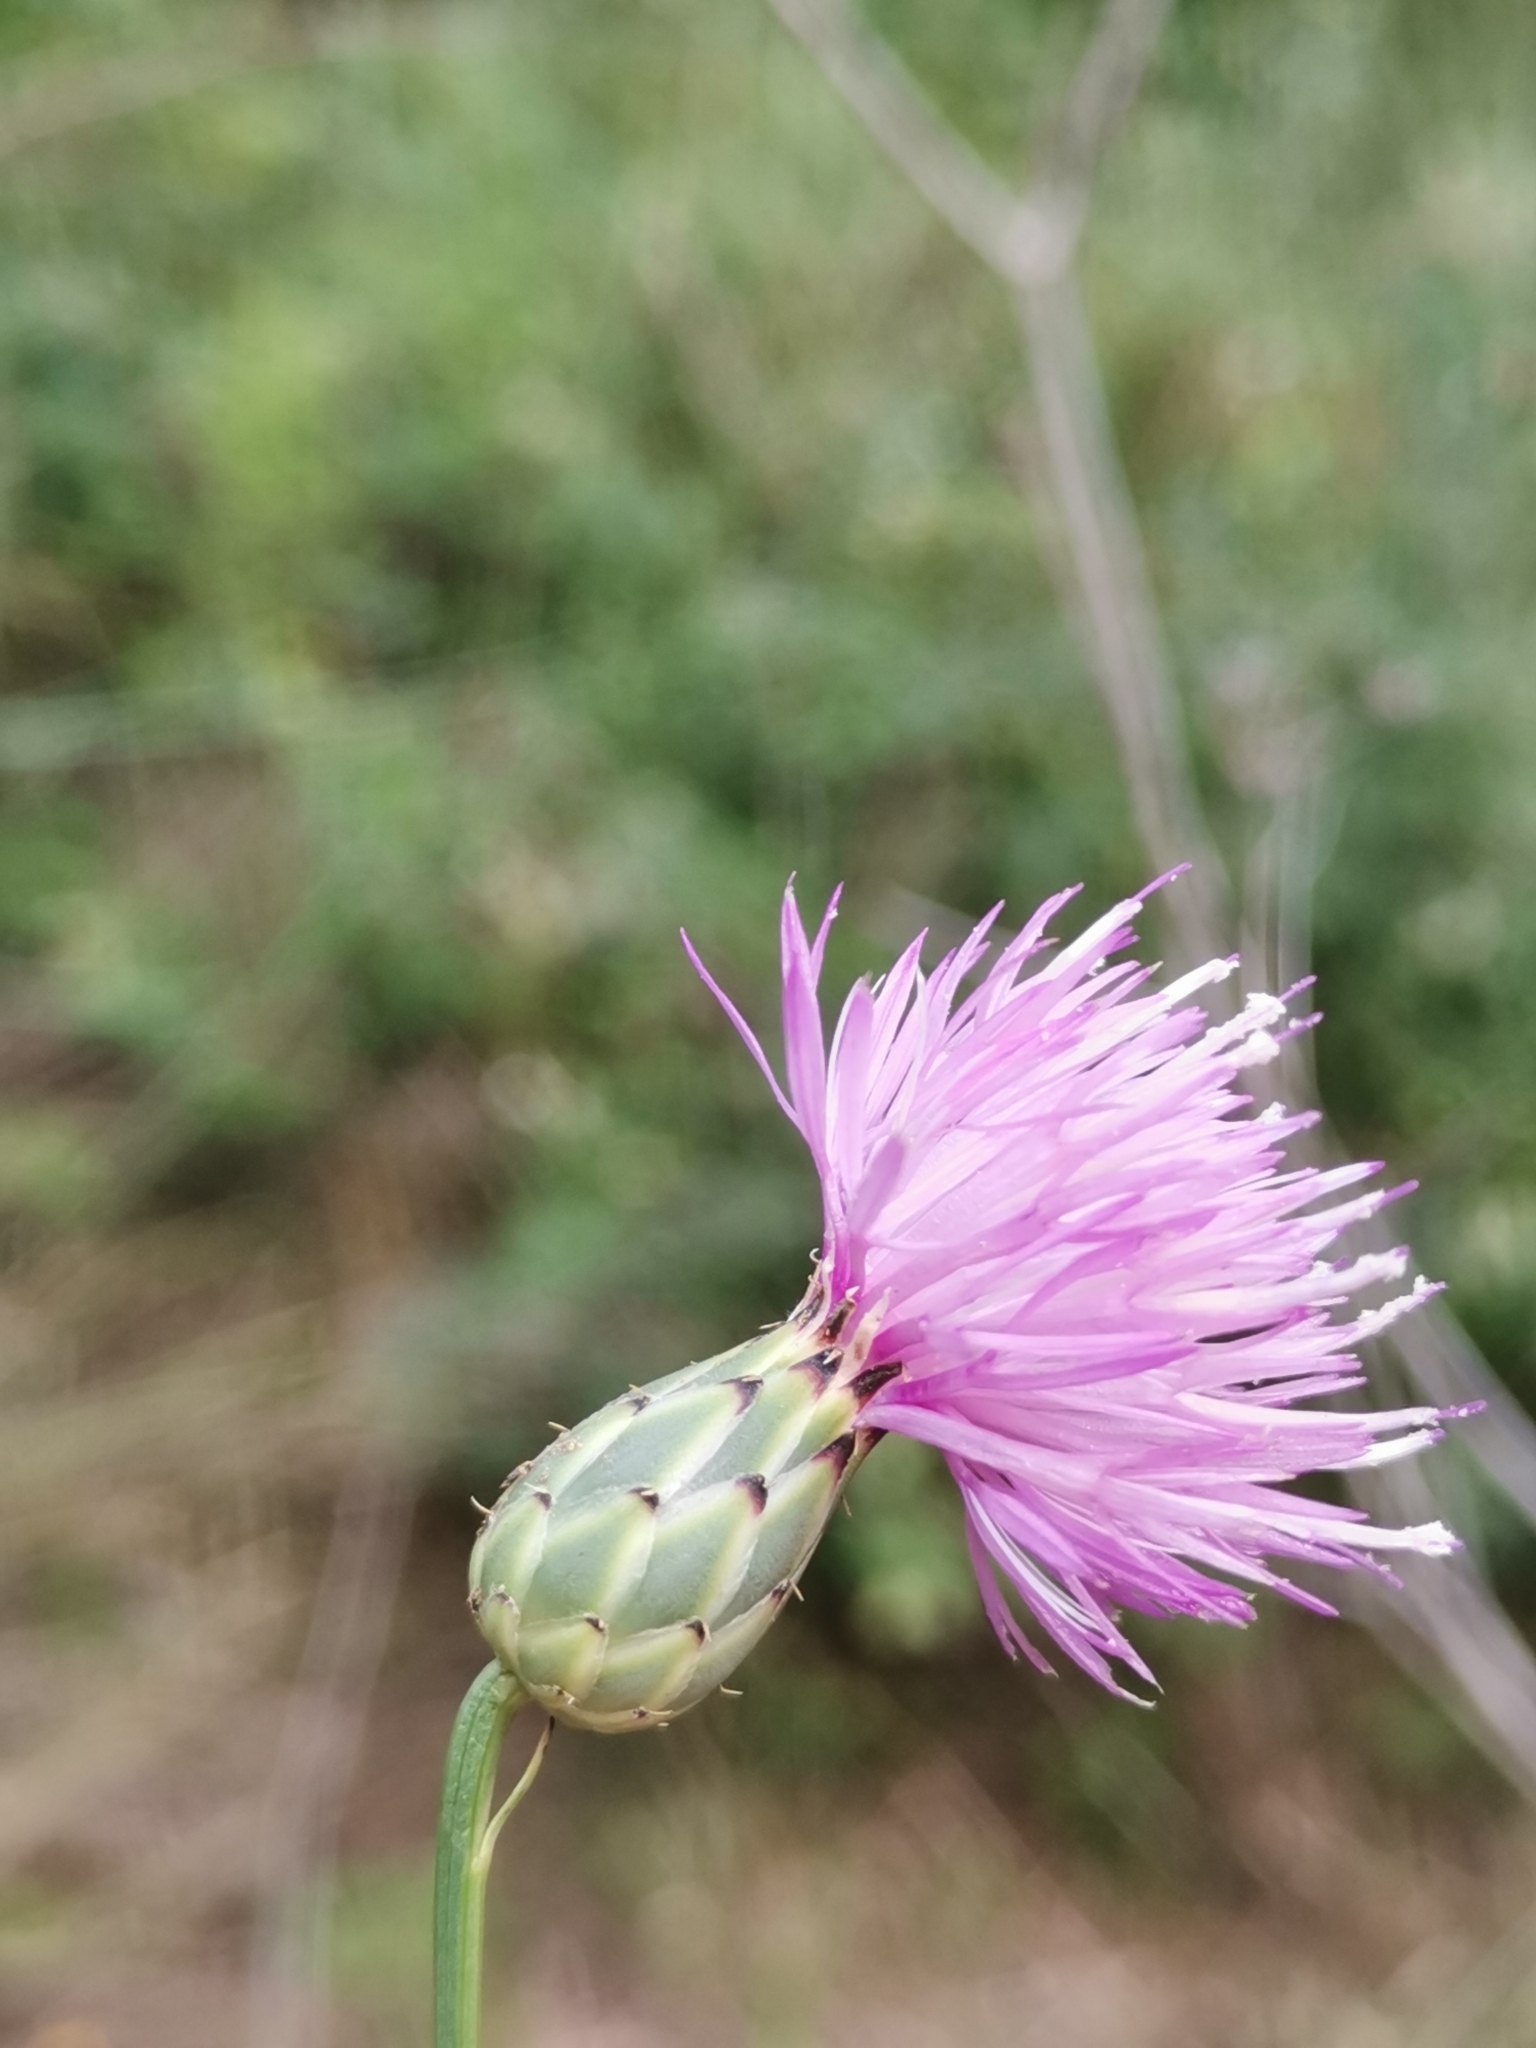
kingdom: Plantae
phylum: Tracheophyta
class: Magnoliopsida
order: Asterales
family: Asteraceae
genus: Mantisalca
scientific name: Mantisalca salmantica
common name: Dagger flower
